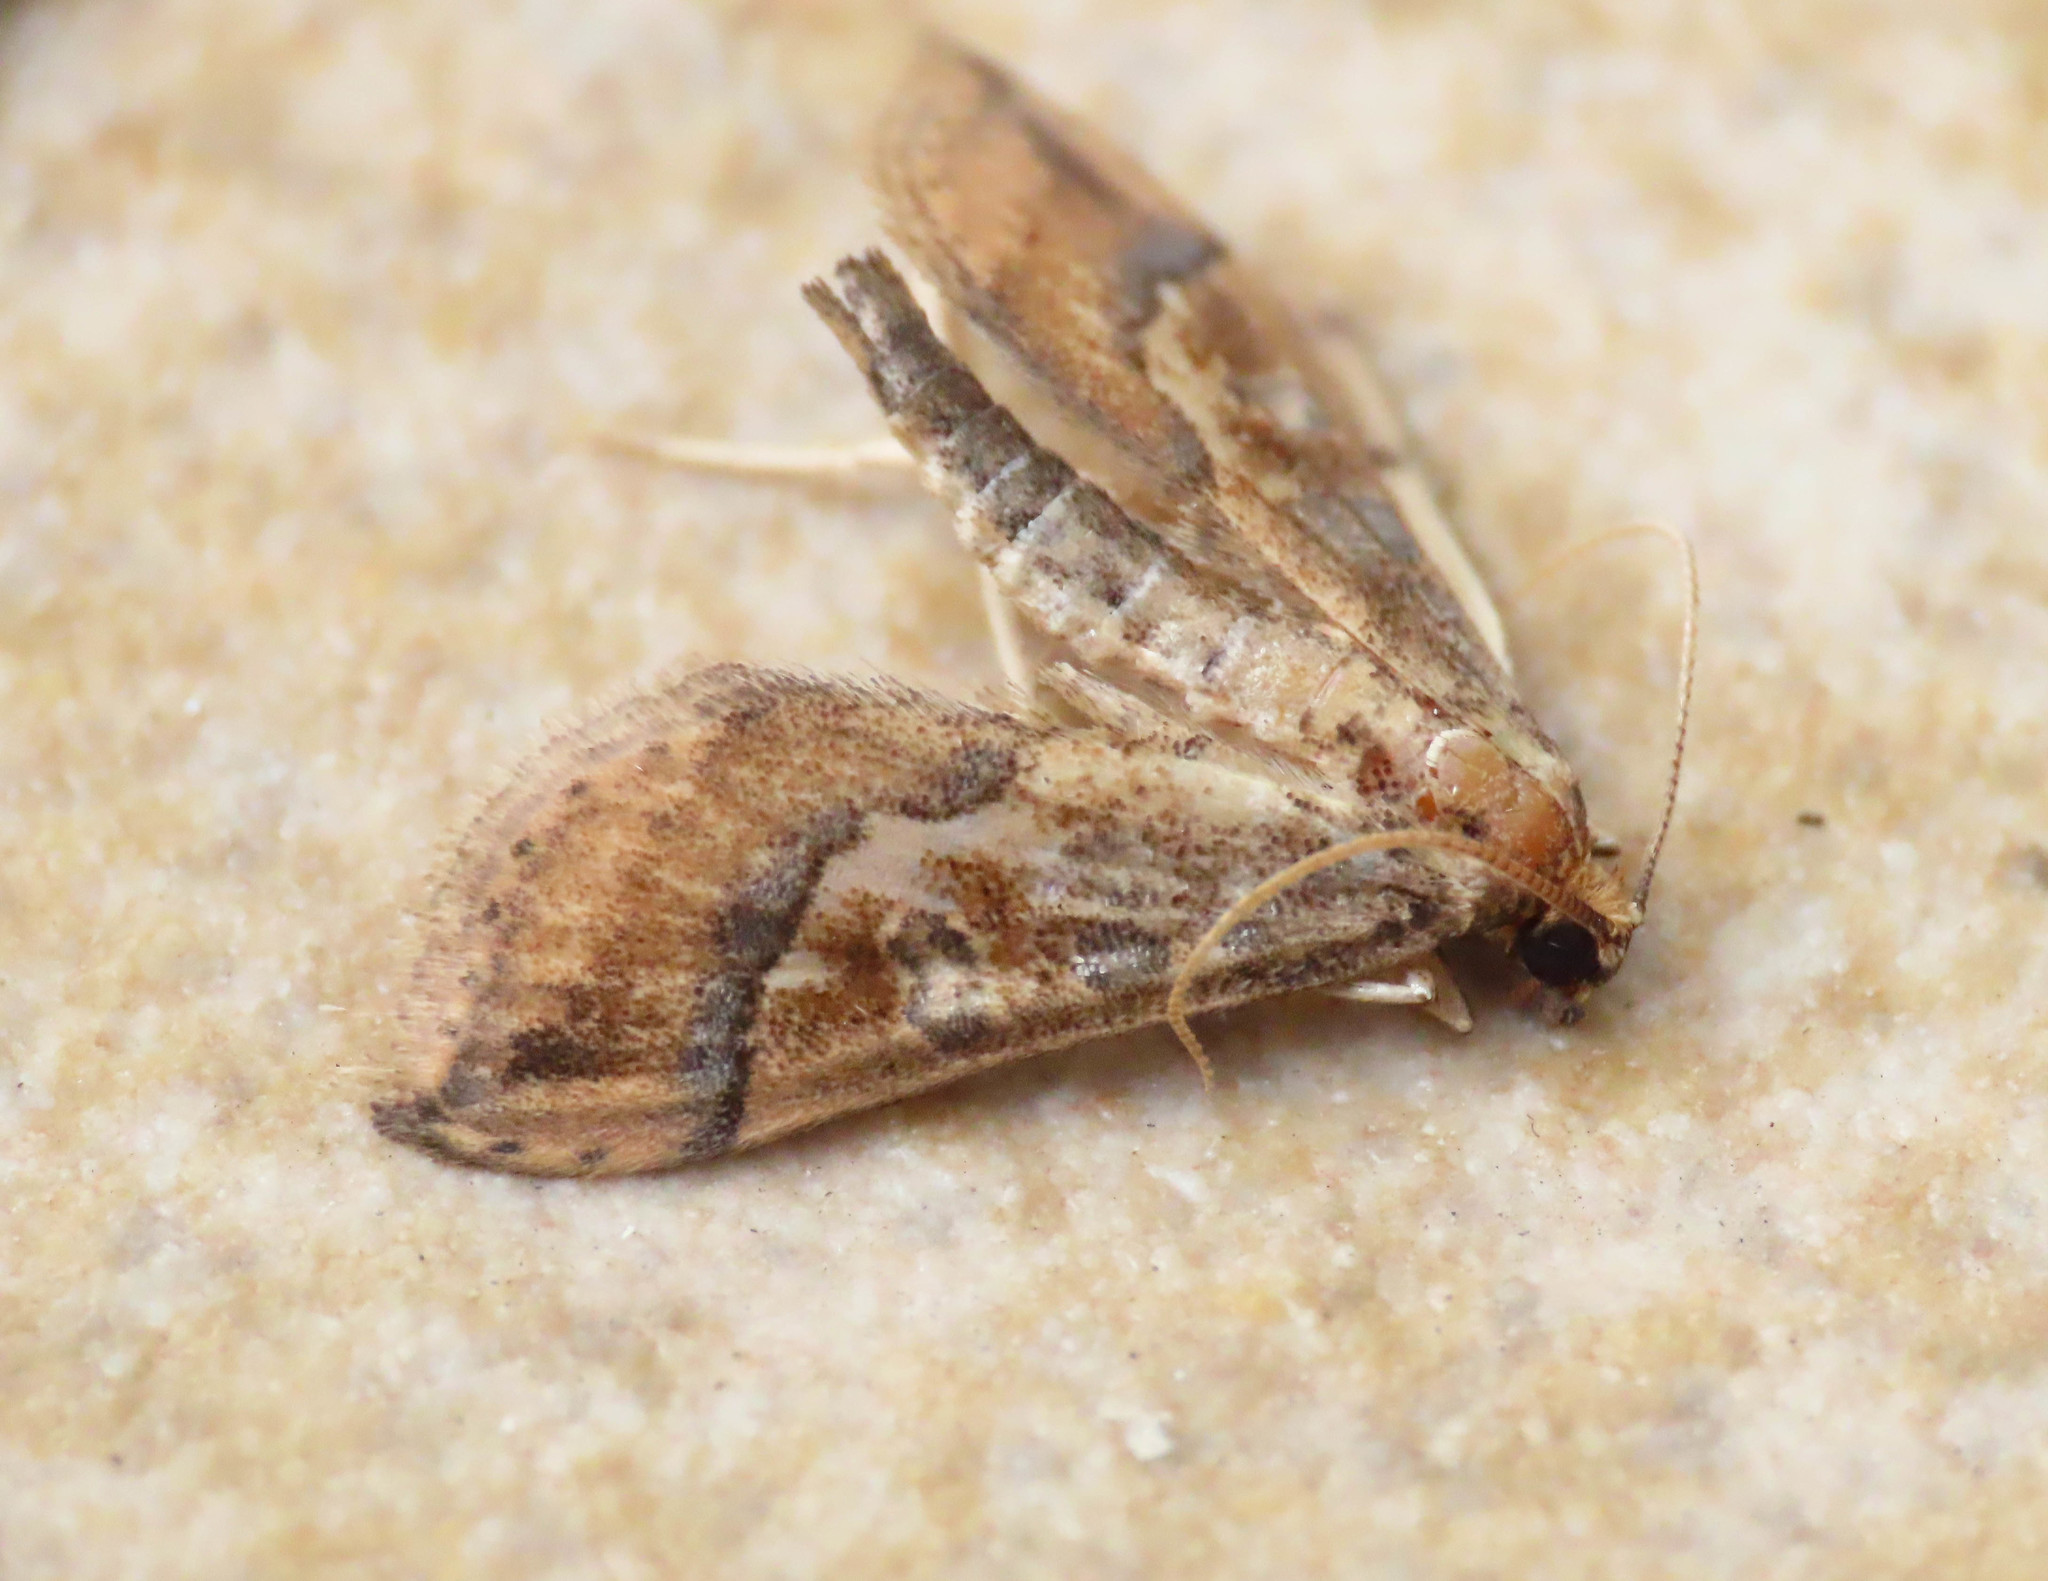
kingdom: Animalia
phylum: Arthropoda
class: Insecta
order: Lepidoptera
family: Crambidae
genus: Hydriris
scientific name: Hydriris ornatalis
